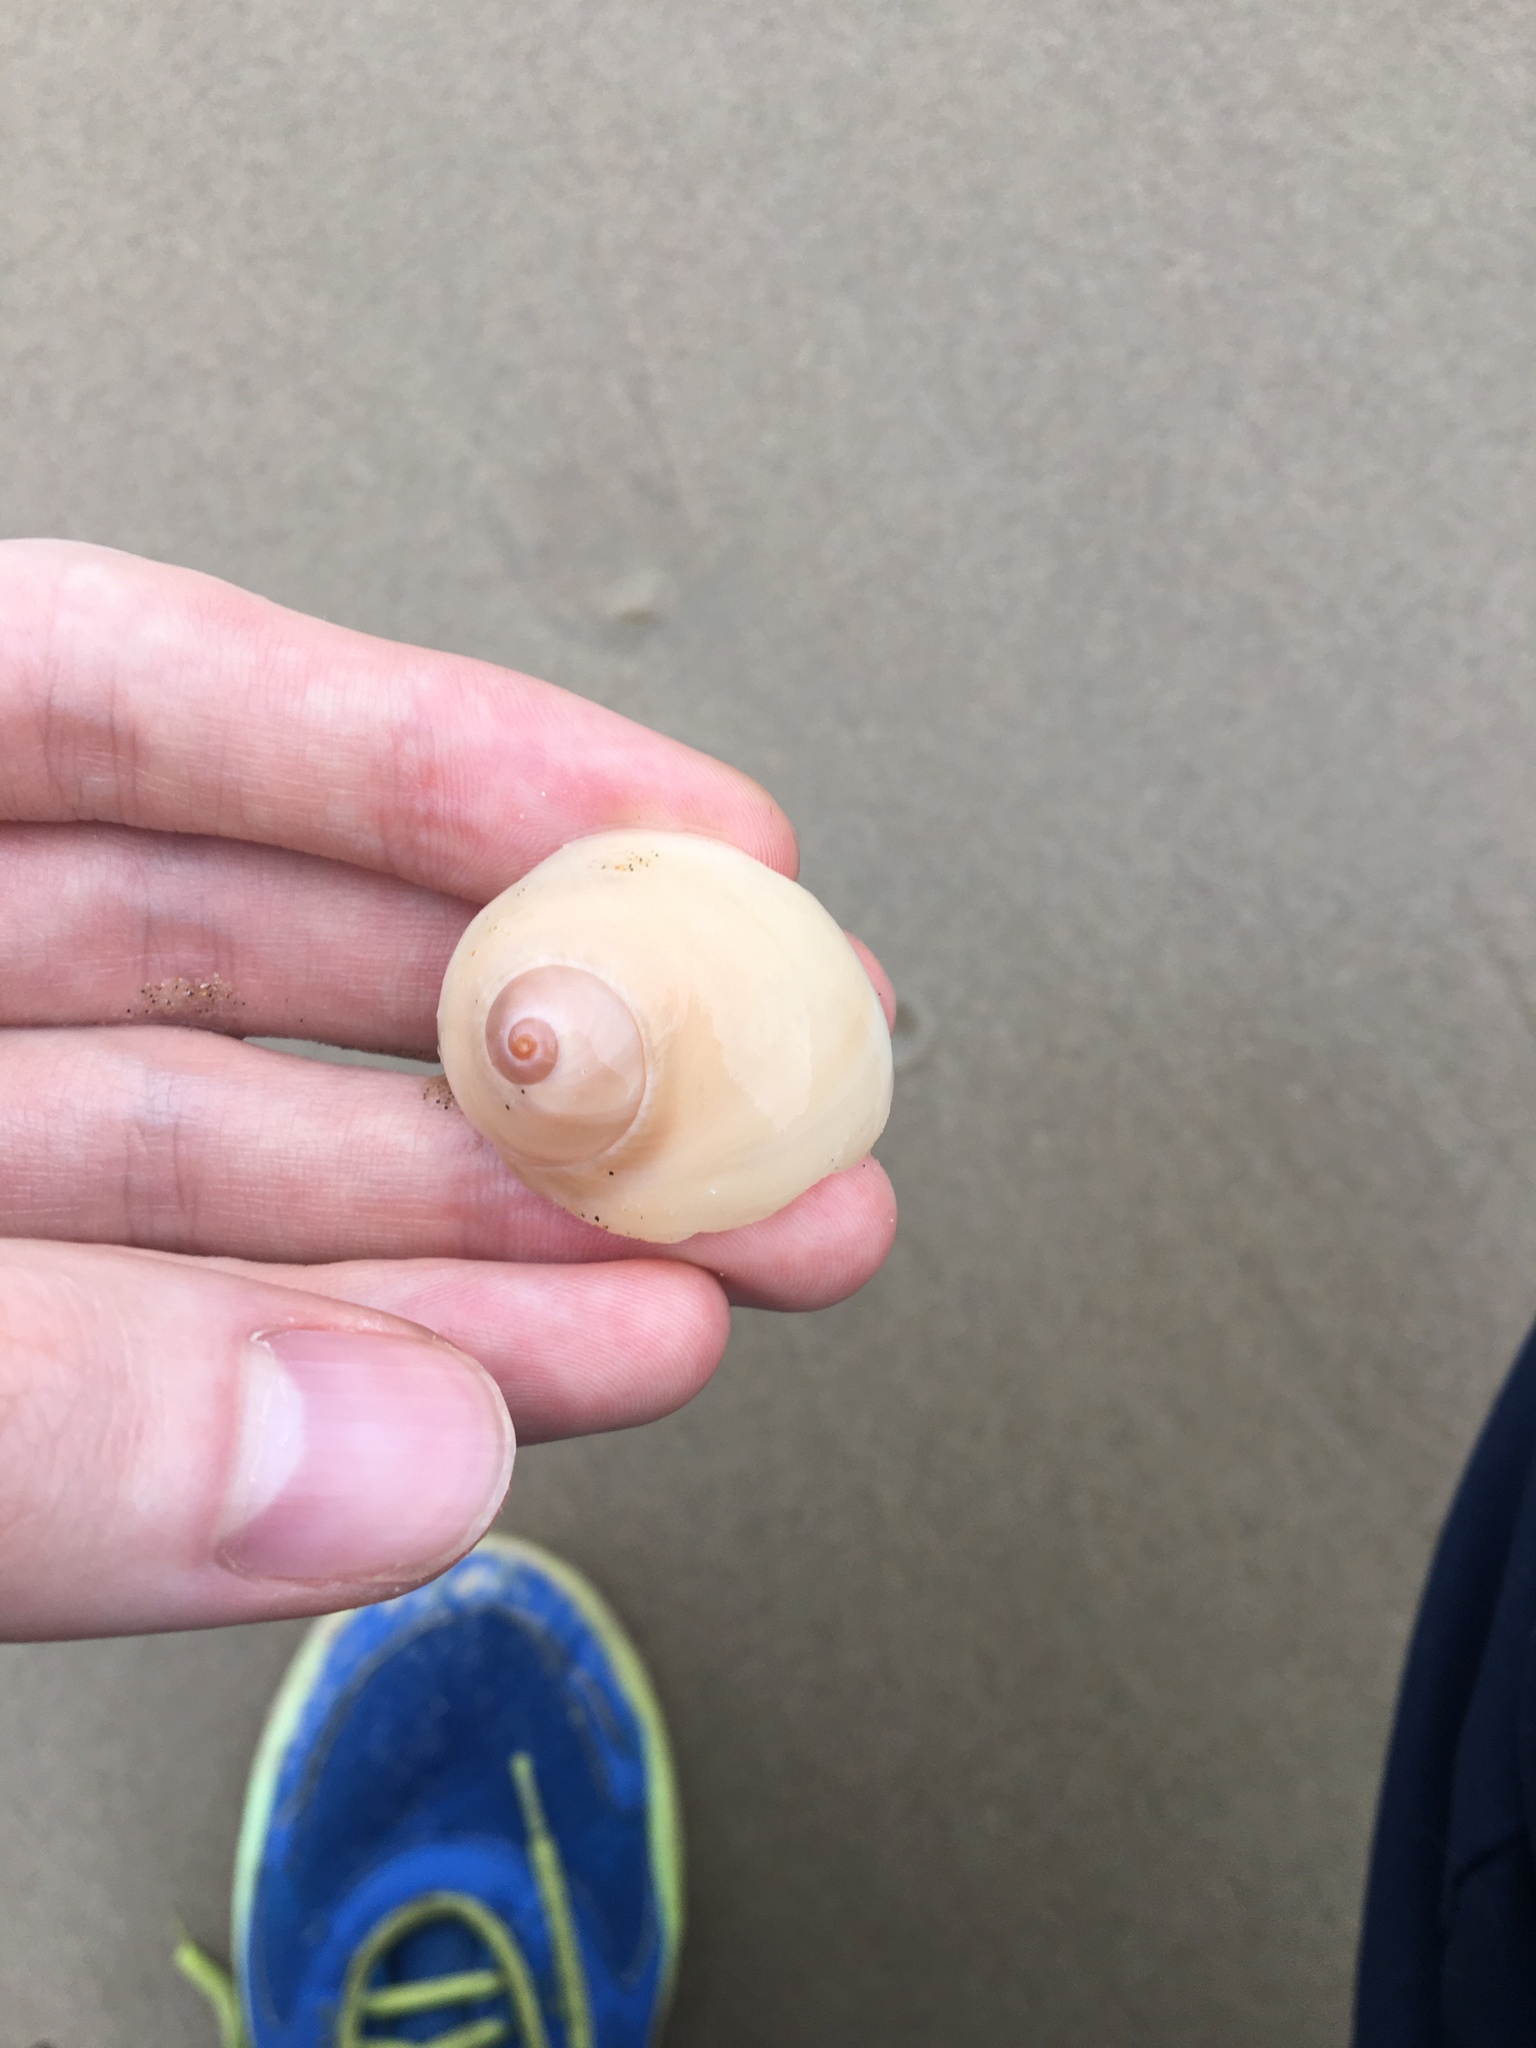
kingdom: Animalia
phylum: Mollusca
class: Gastropoda
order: Littorinimorpha
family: Naticidae
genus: Neverita
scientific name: Neverita didyma
